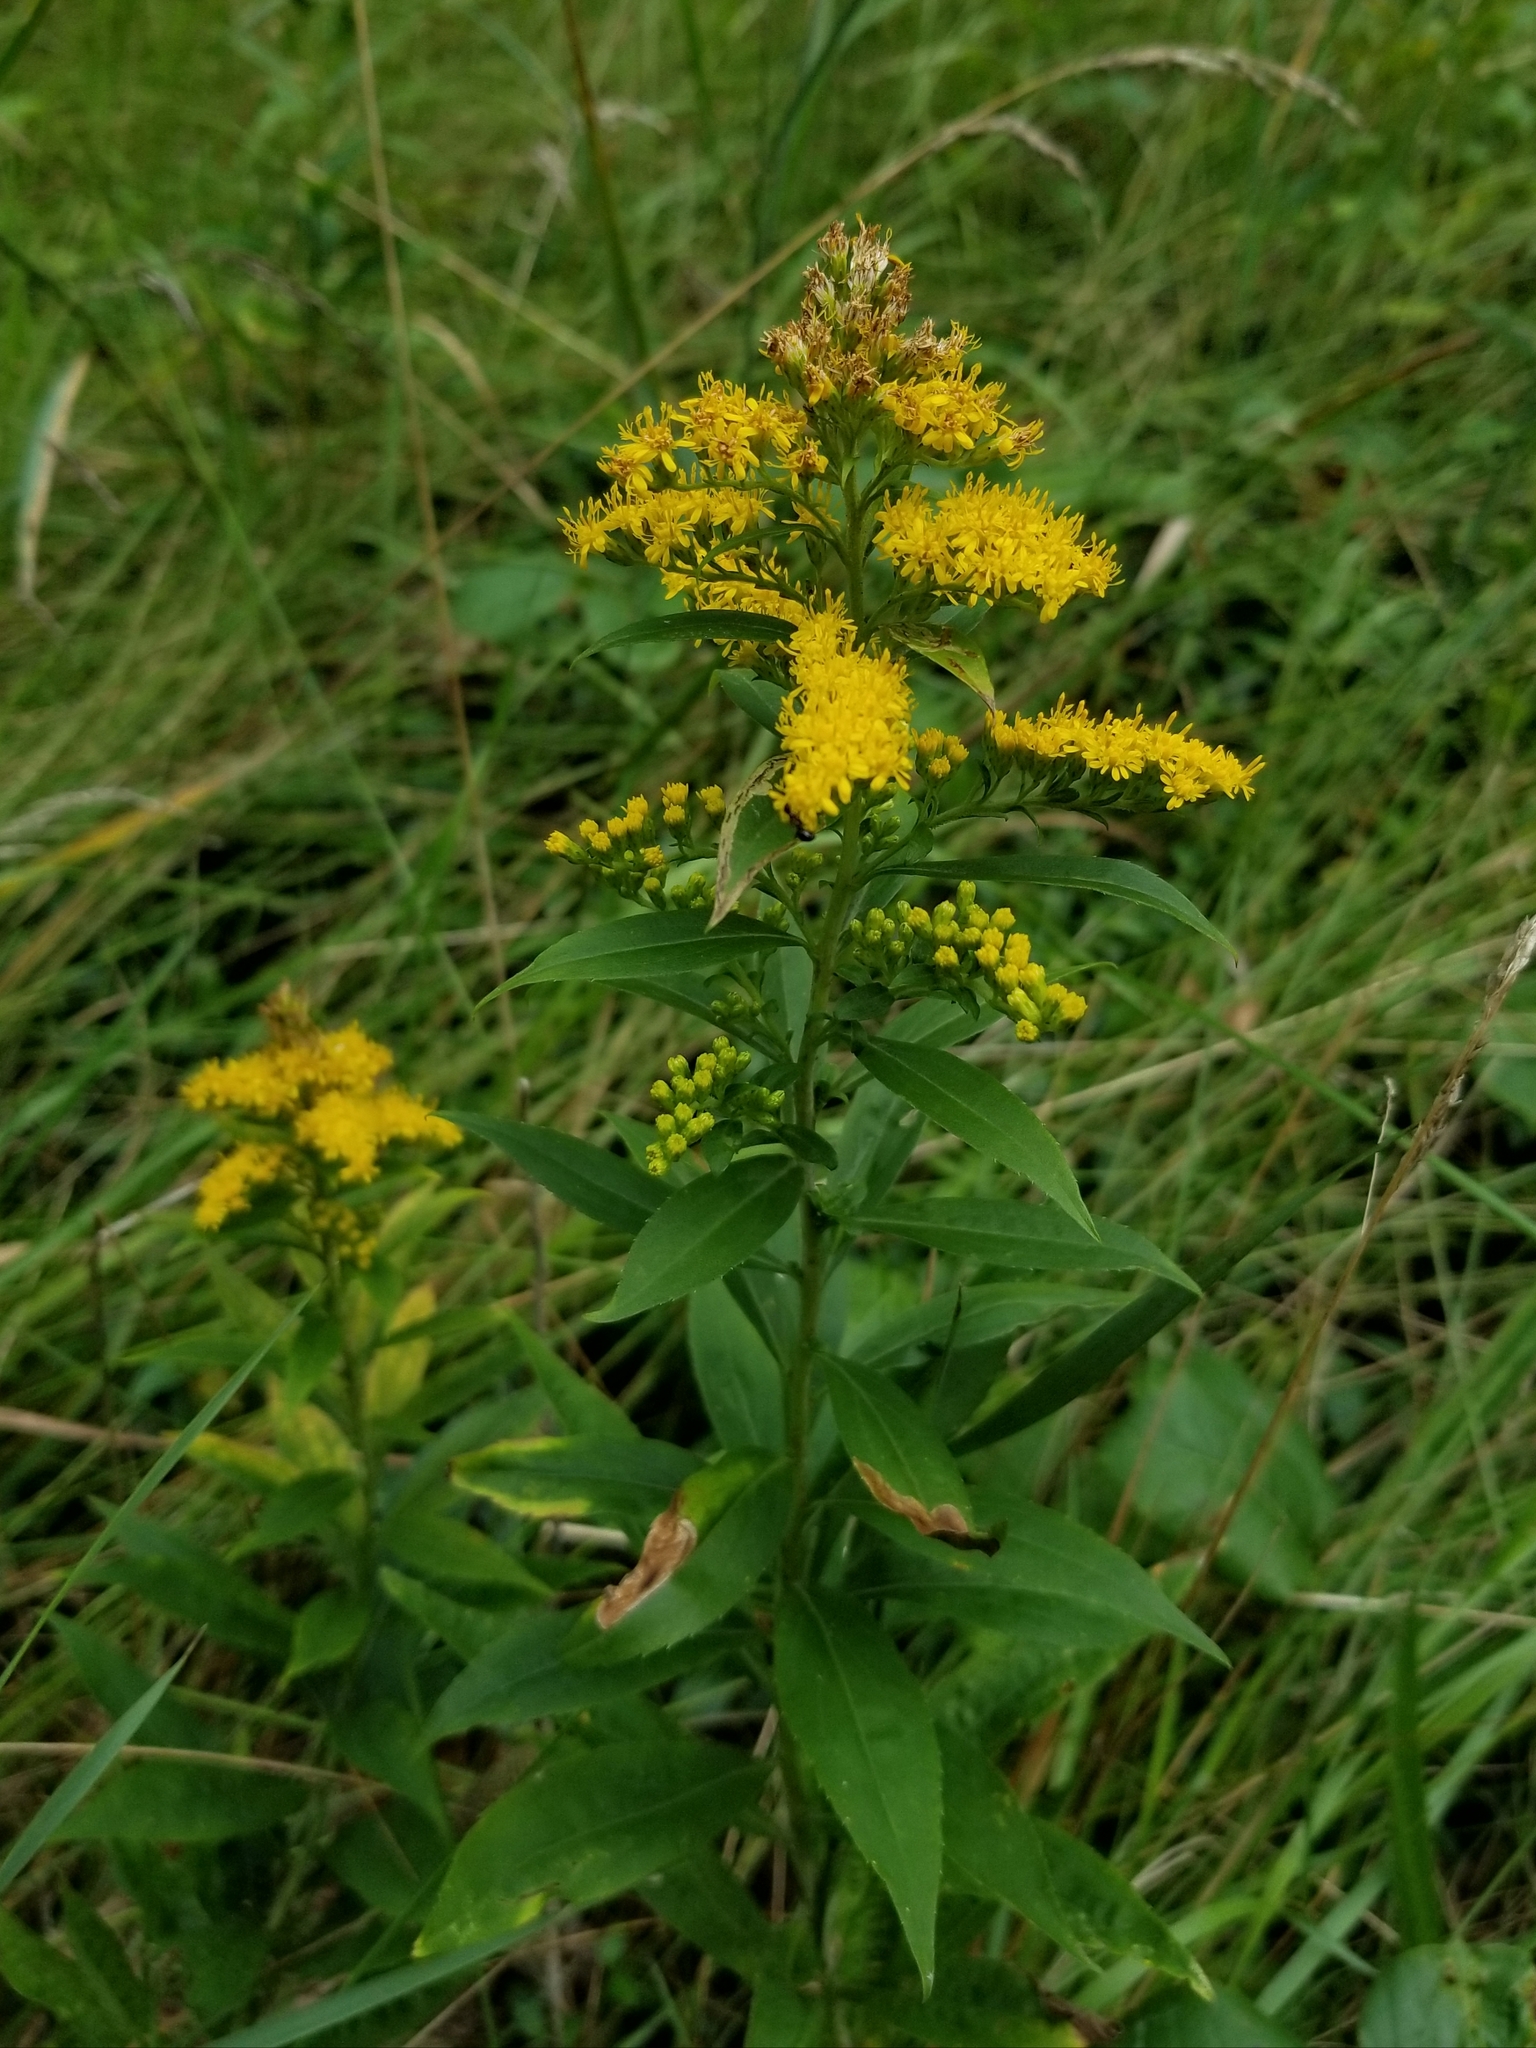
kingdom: Plantae
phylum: Tracheophyta
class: Magnoliopsida
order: Asterales
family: Asteraceae
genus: Solidago
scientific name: Solidago gigantea
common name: Giant goldenrod
